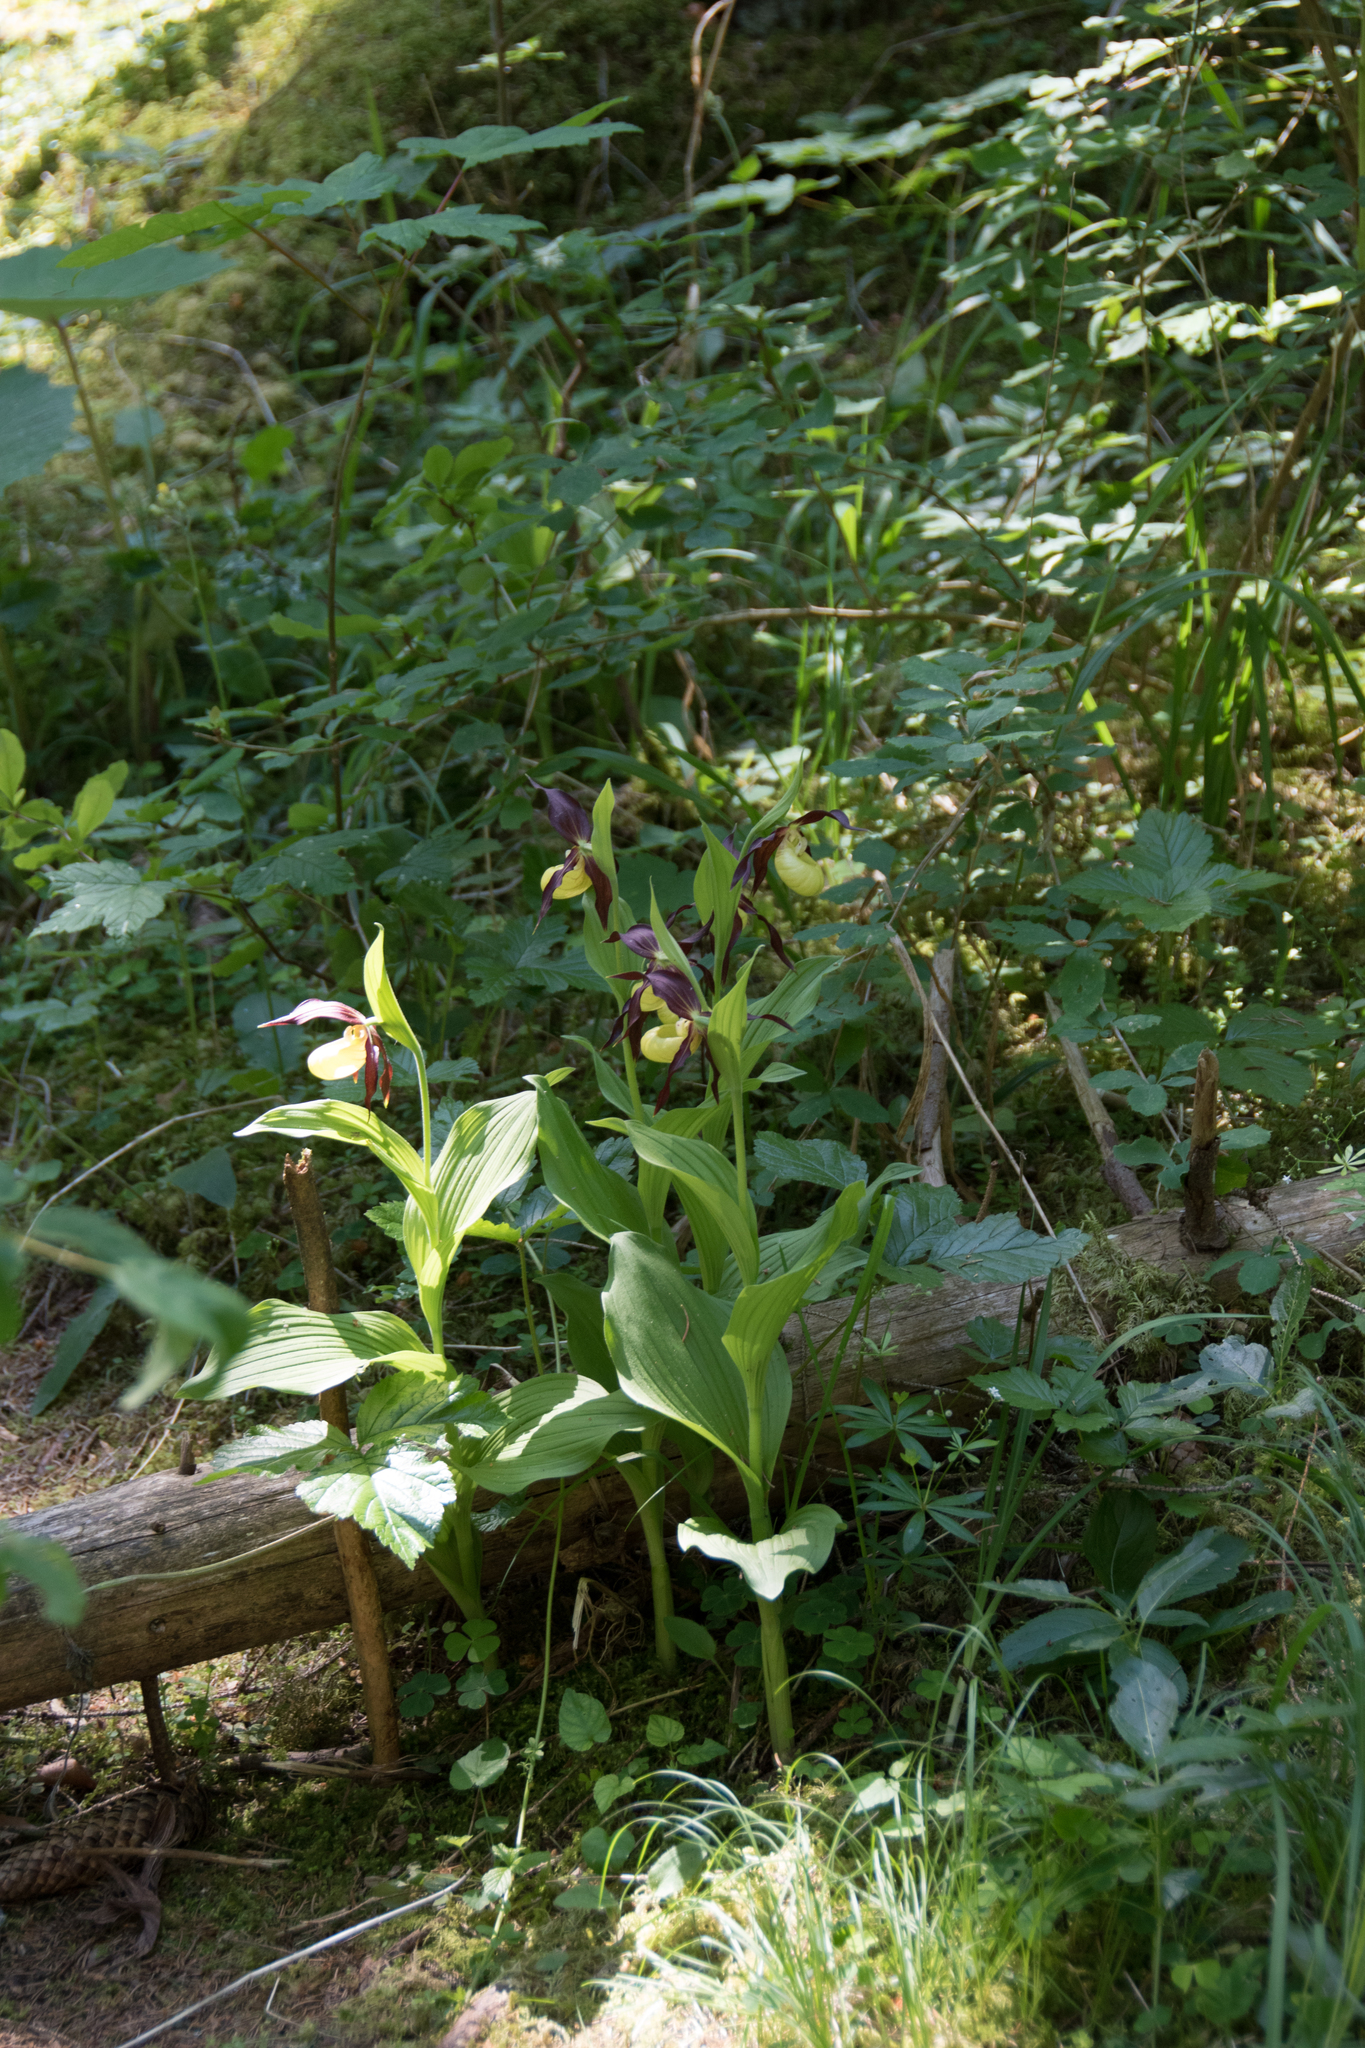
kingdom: Plantae
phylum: Tracheophyta
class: Liliopsida
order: Asparagales
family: Orchidaceae
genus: Cypripedium
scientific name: Cypripedium calceolus
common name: Lady's-slipper
